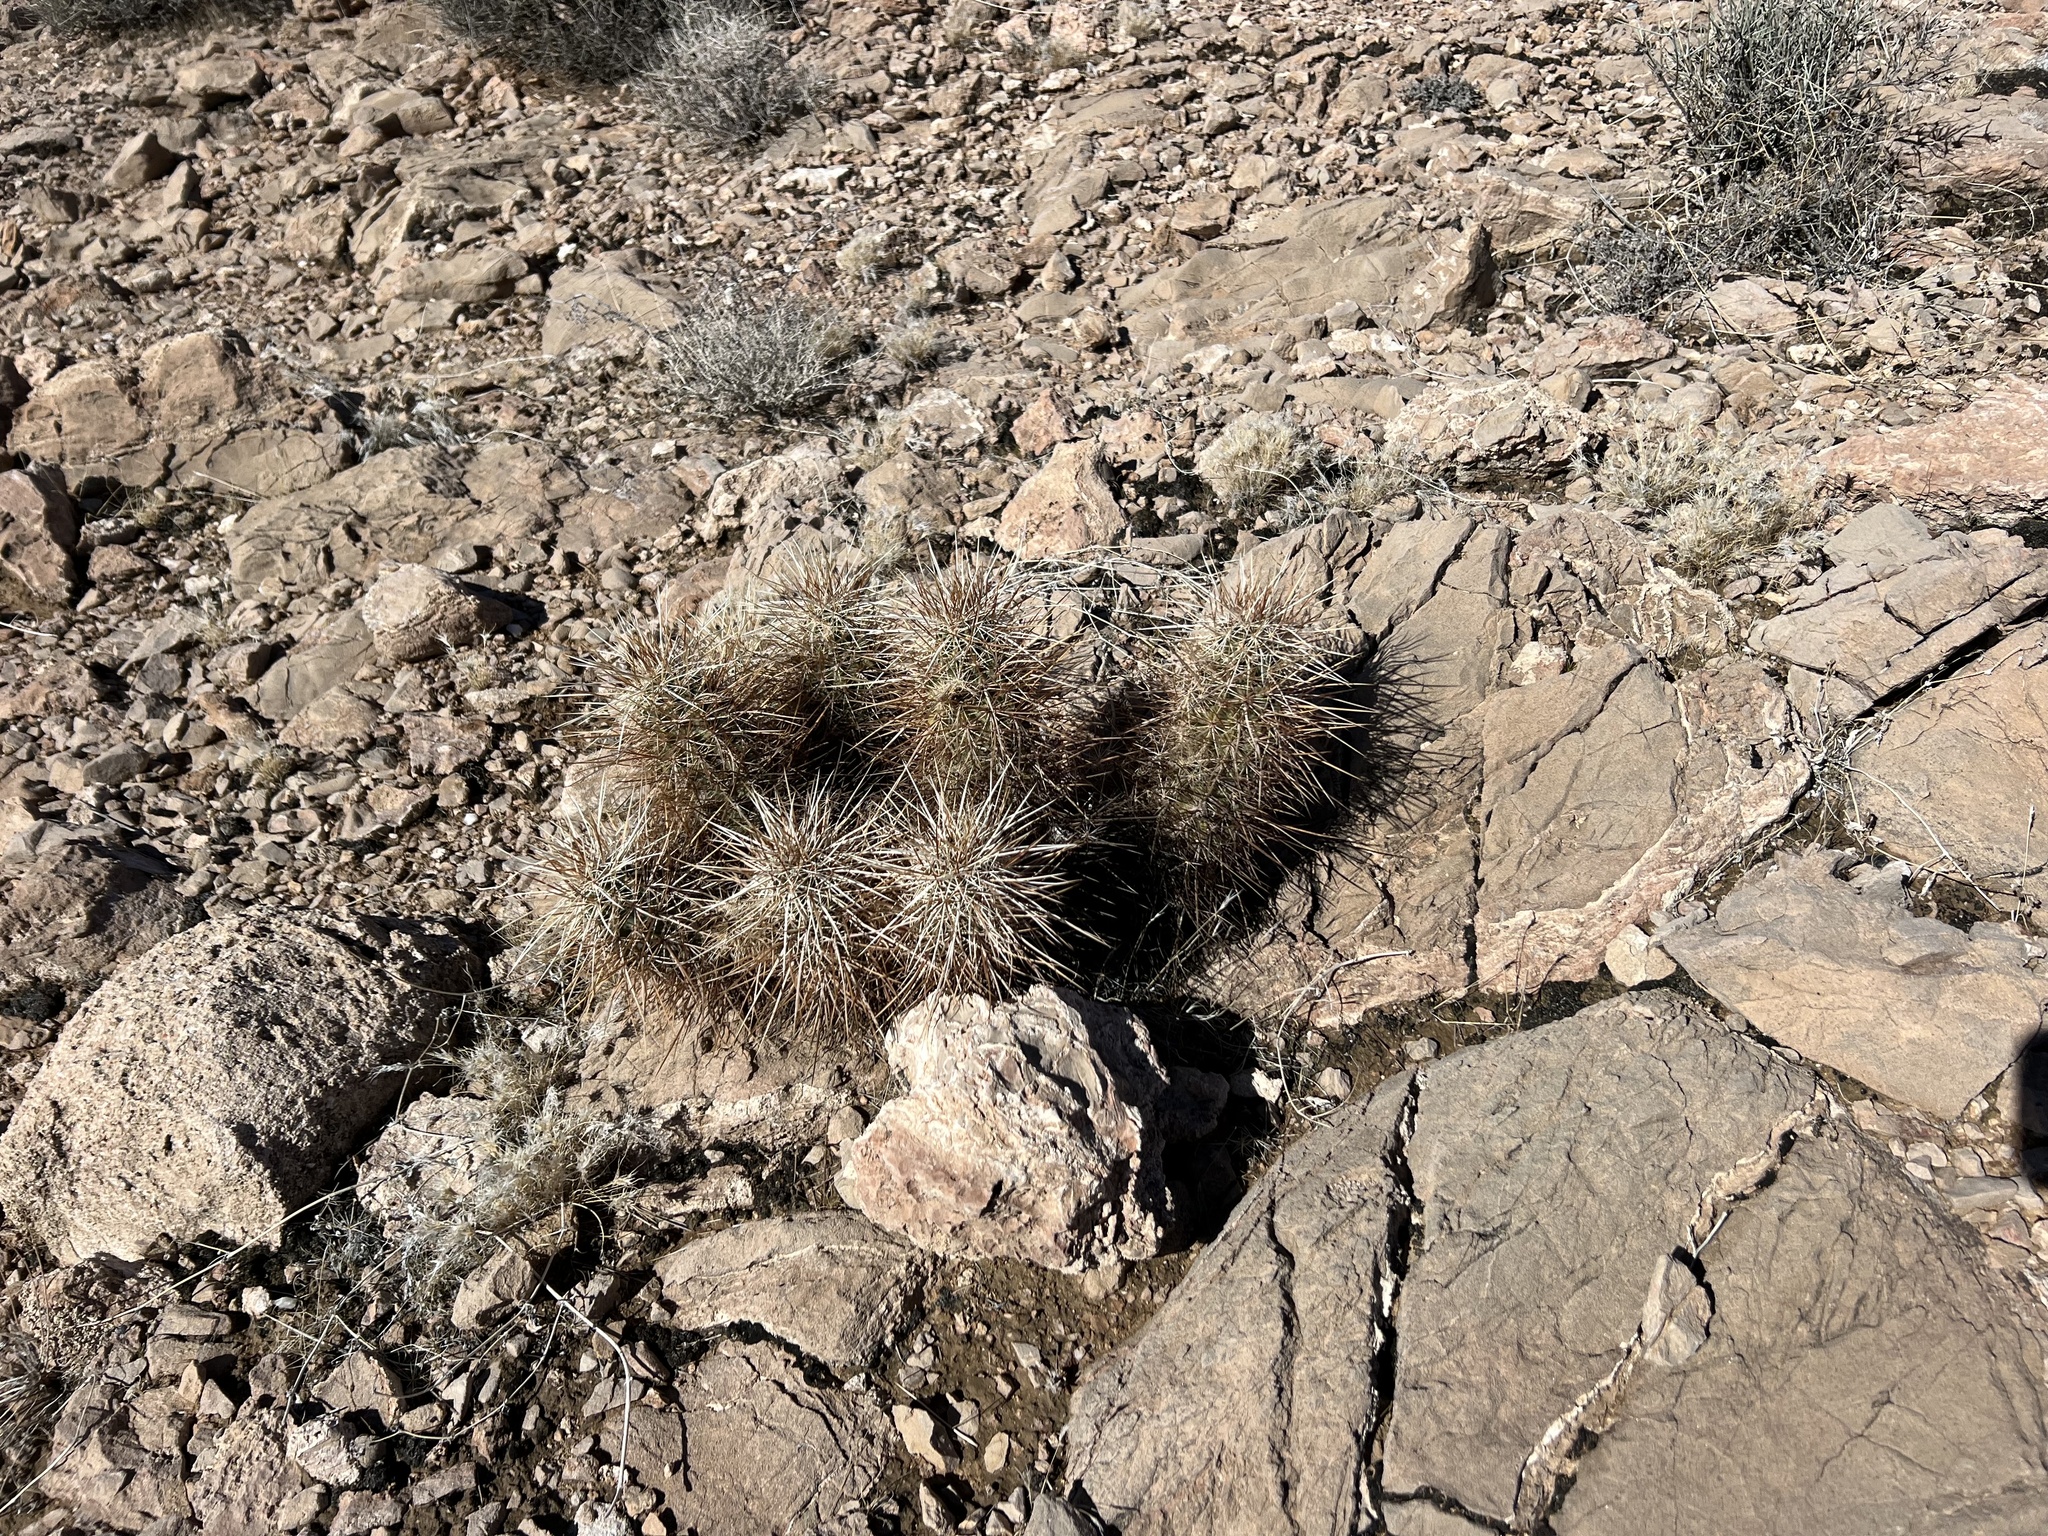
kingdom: Plantae
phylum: Tracheophyta
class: Magnoliopsida
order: Caryophyllales
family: Cactaceae
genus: Echinocereus
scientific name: Echinocereus engelmannii
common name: Engelmann's hedgehog cactus
